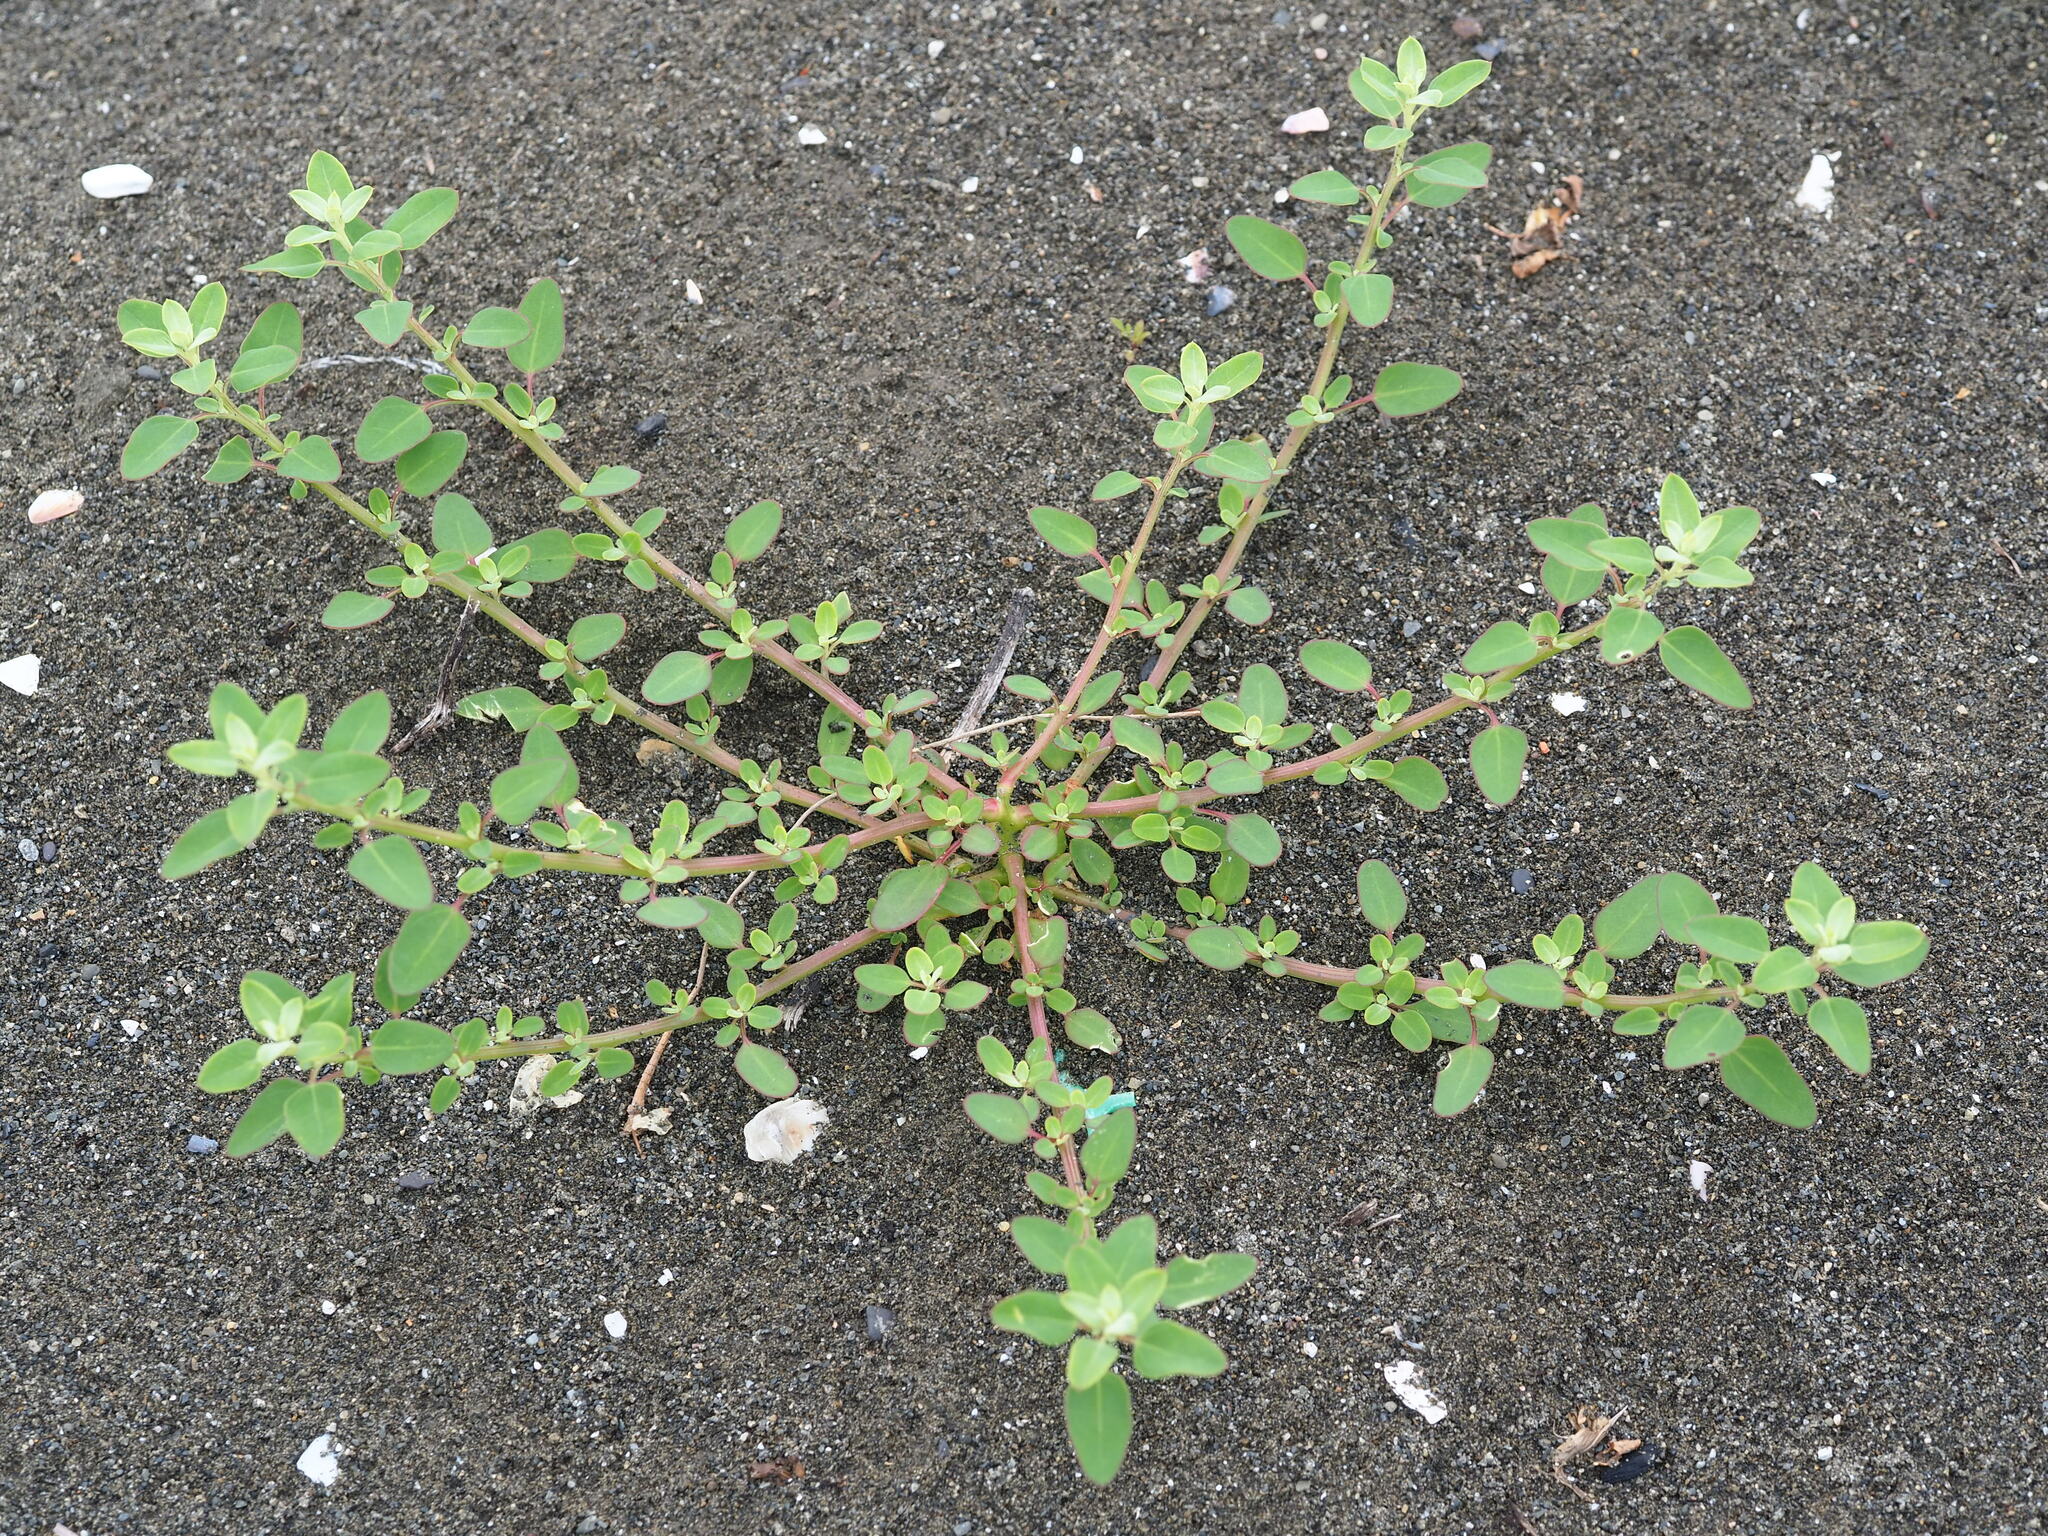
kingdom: Plantae
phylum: Tracheophyta
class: Magnoliopsida
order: Caryophyllales
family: Amaranthaceae
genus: Chenopodium
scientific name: Chenopodium acuminatum
